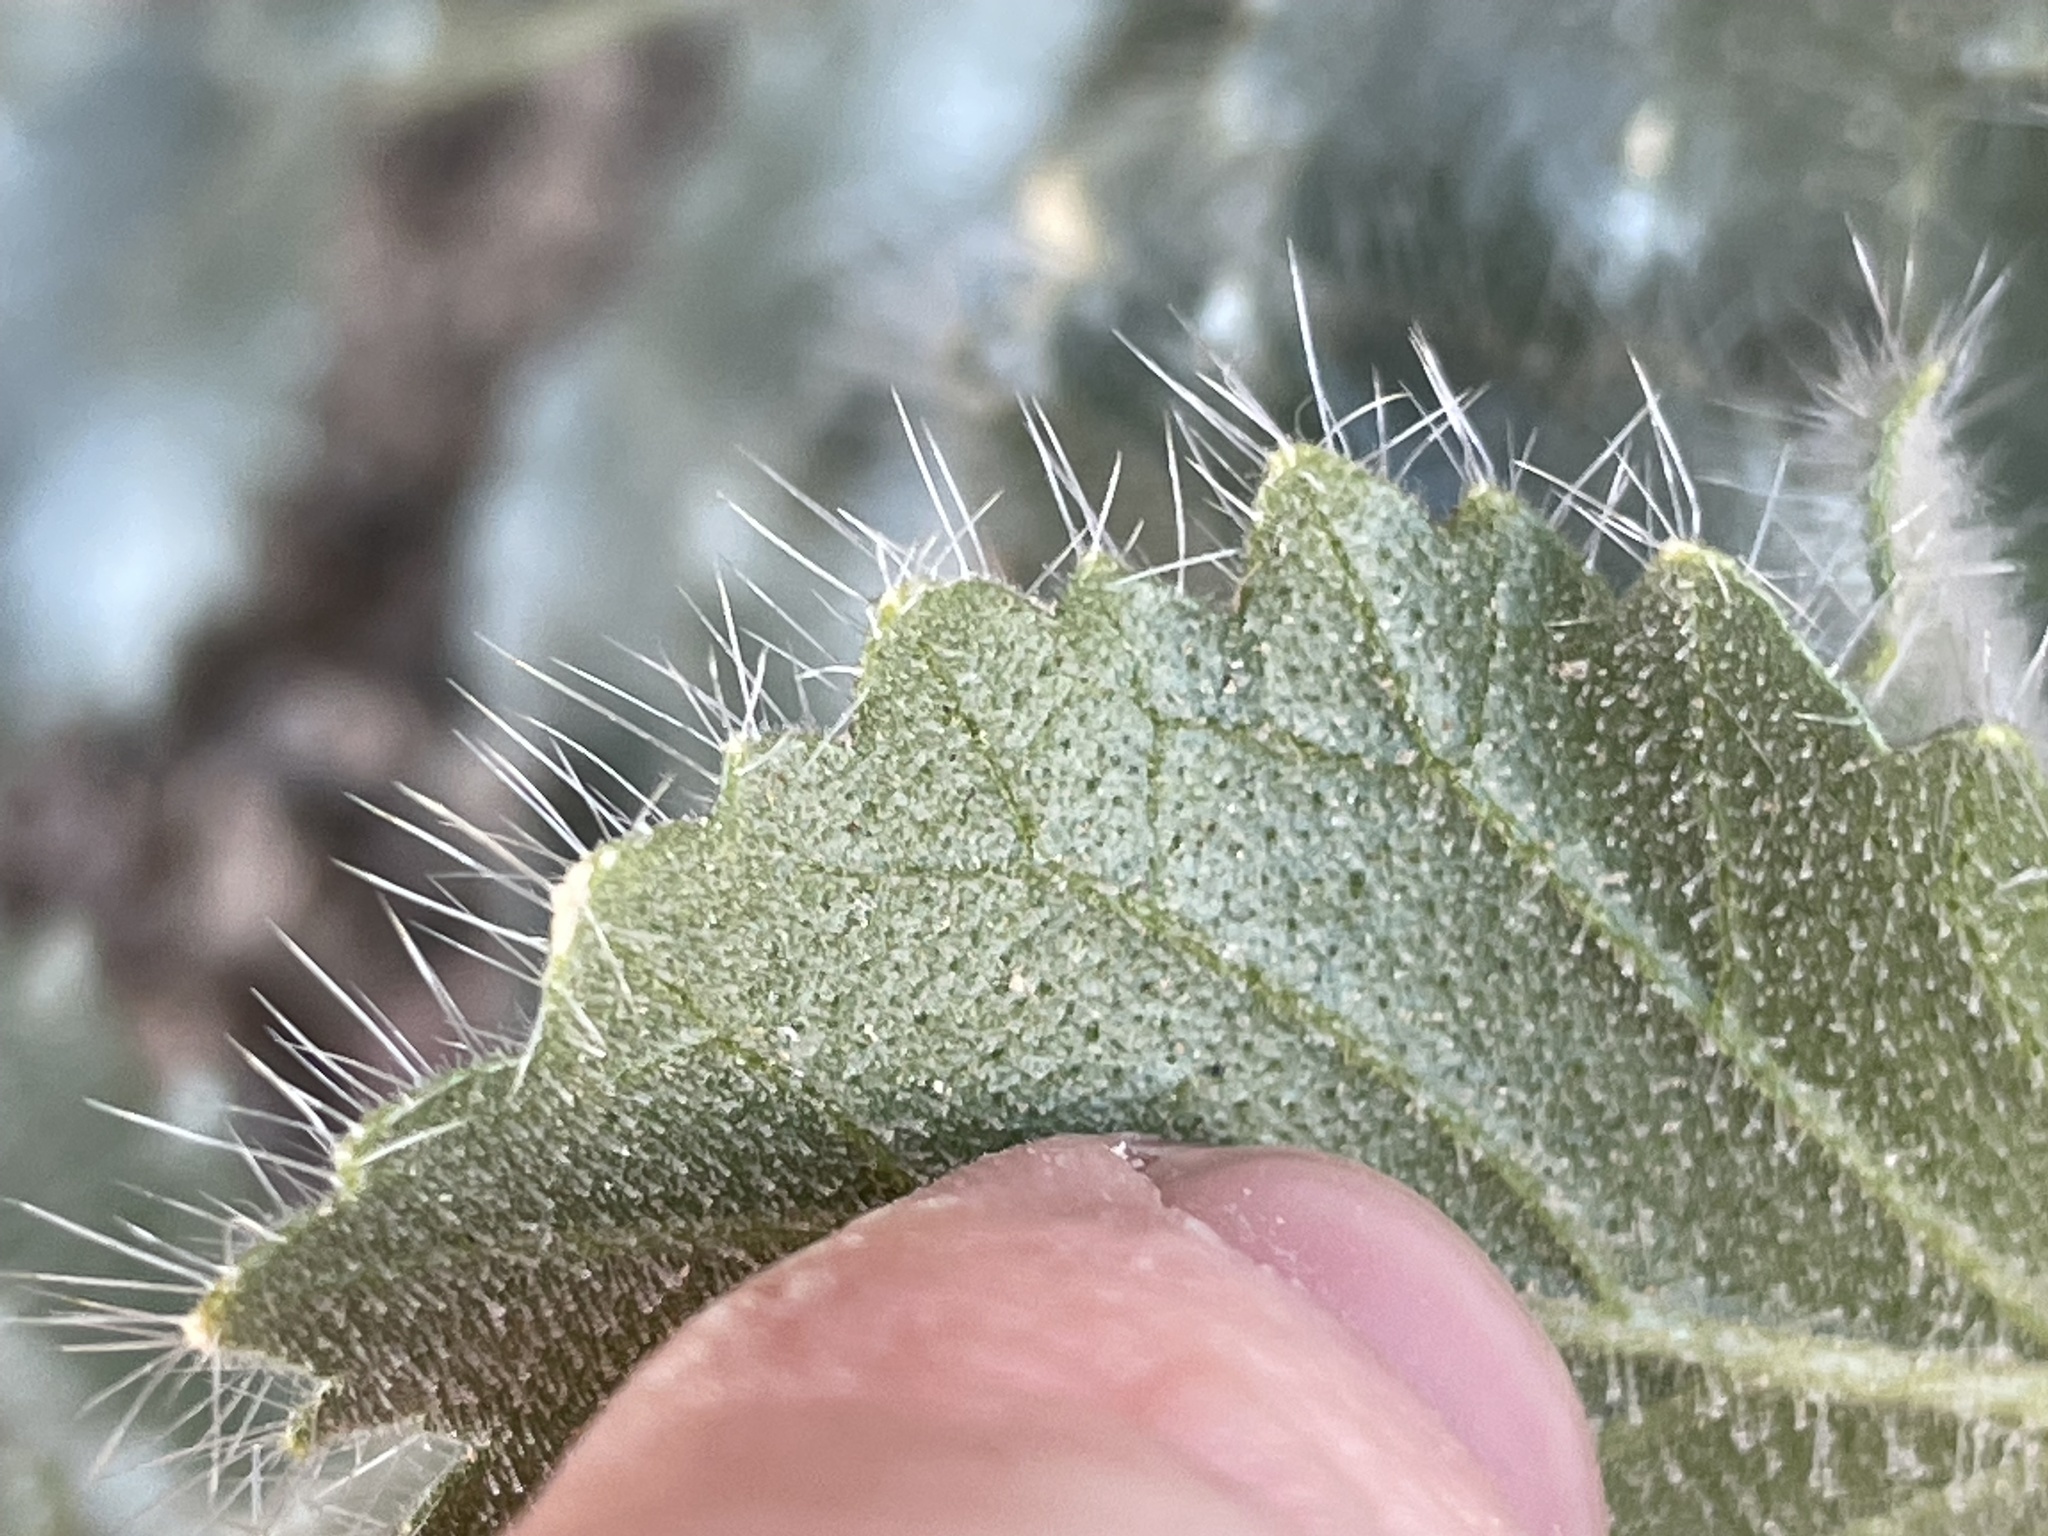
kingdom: Plantae
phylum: Tracheophyta
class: Magnoliopsida
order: Cornales
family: Loasaceae
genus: Eucnide
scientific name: Eucnide urens
